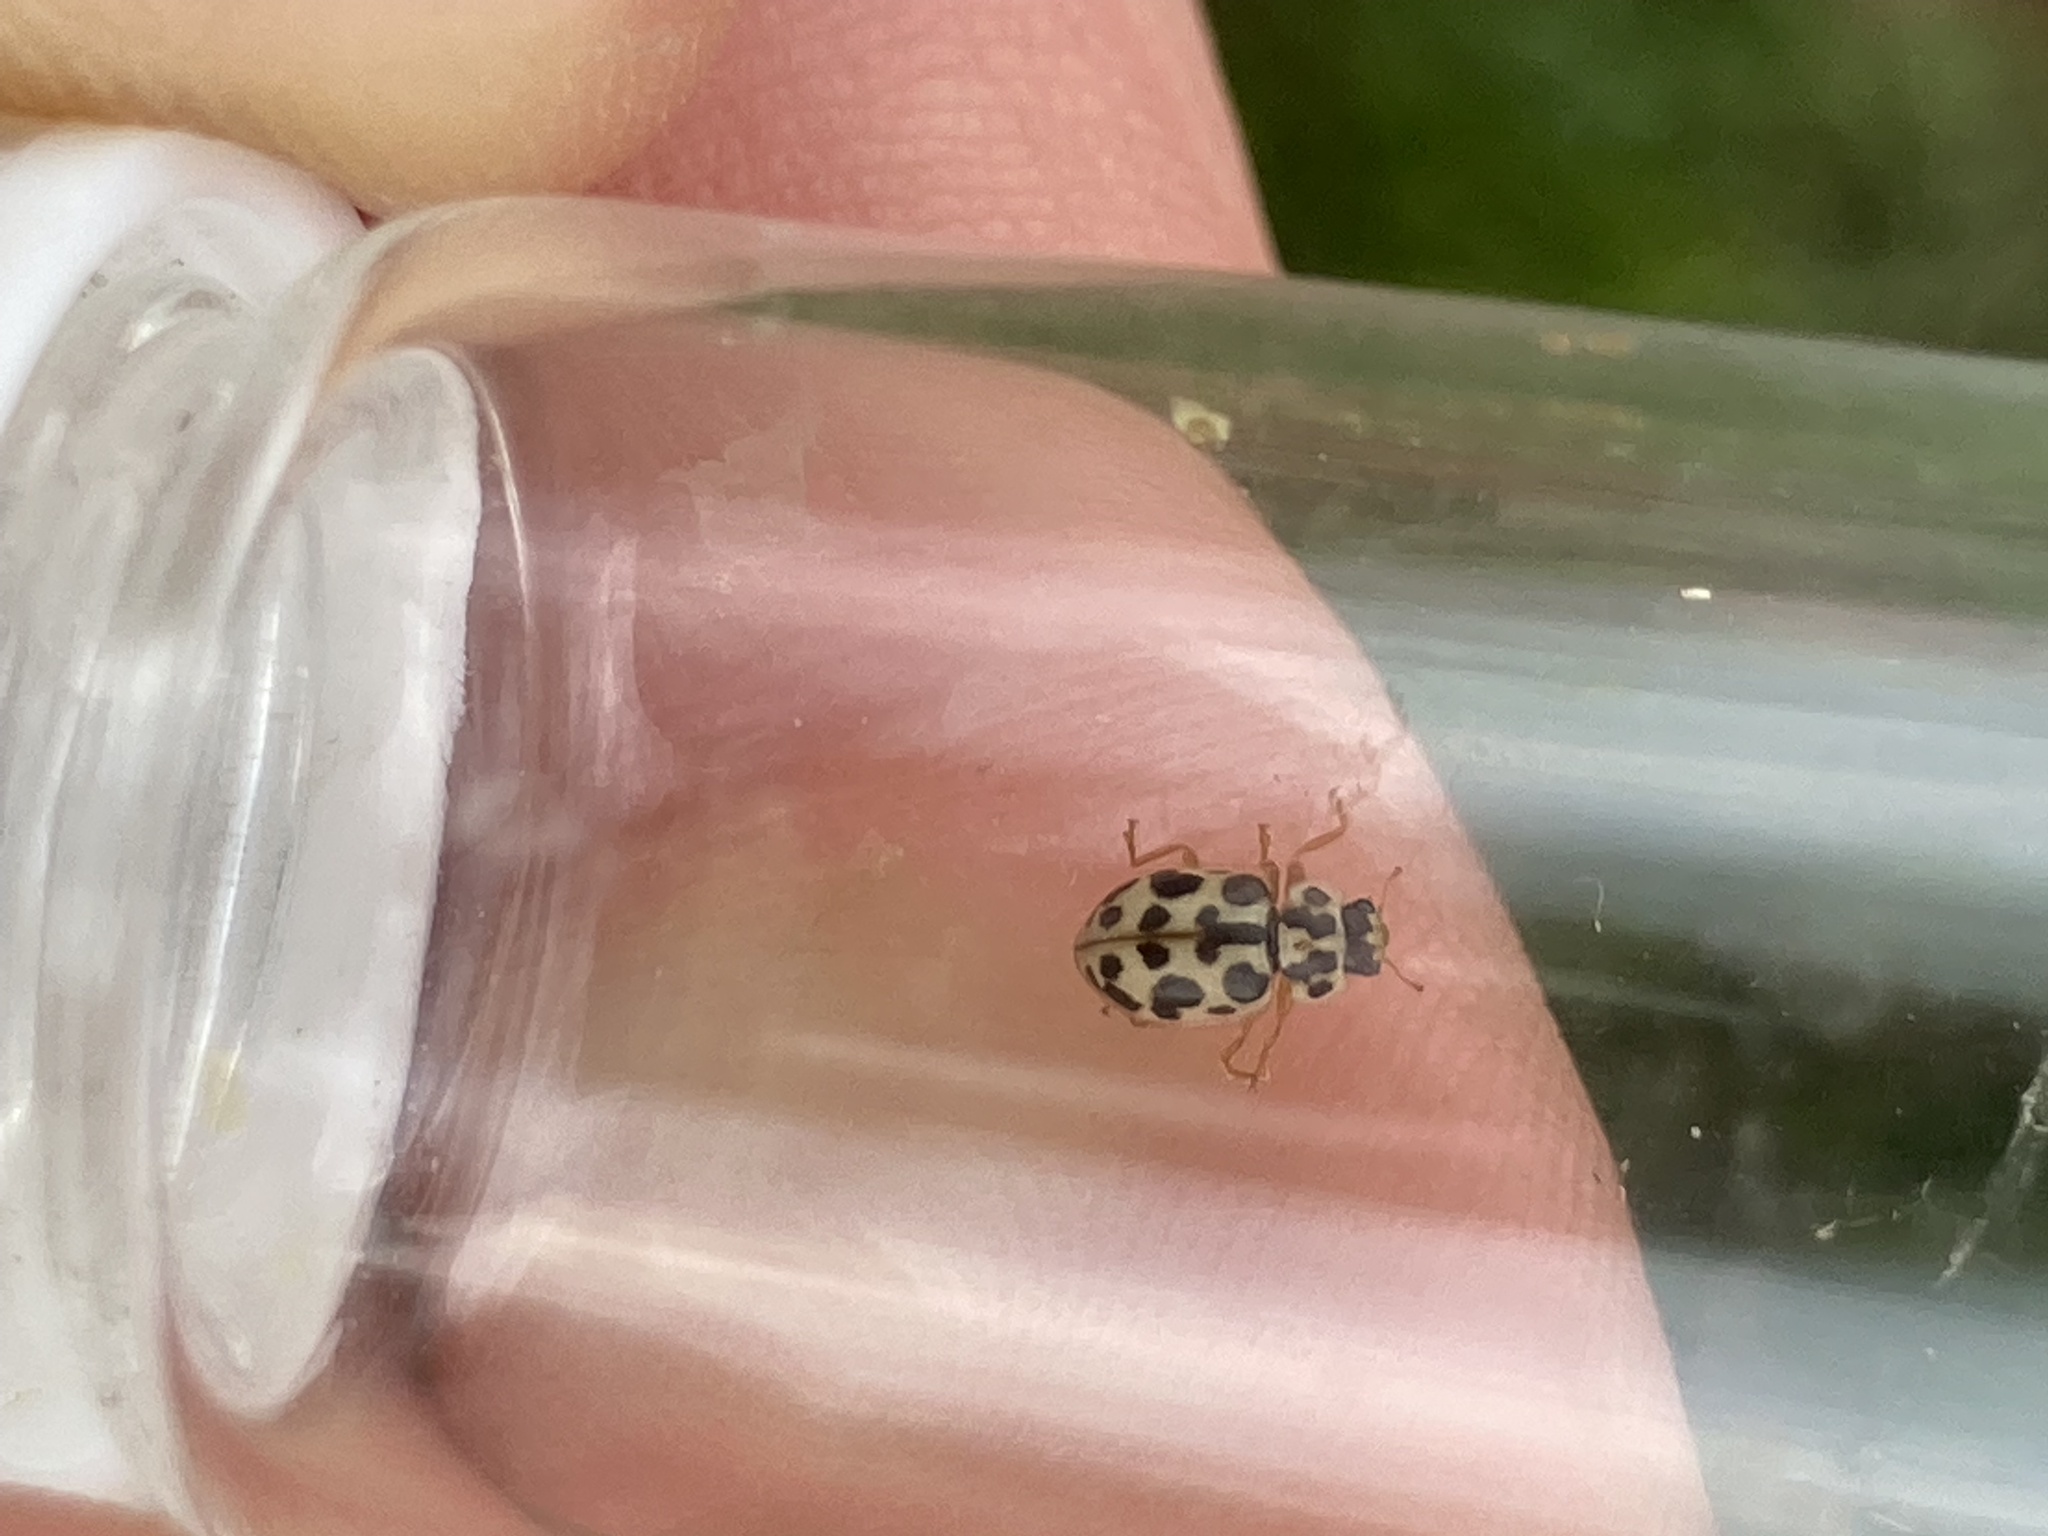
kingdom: Animalia
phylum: Arthropoda
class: Insecta
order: Coleoptera
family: Coccinellidae
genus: Anisosticta
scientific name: Anisosticta bitriangularis
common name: Marsh lady beetle
